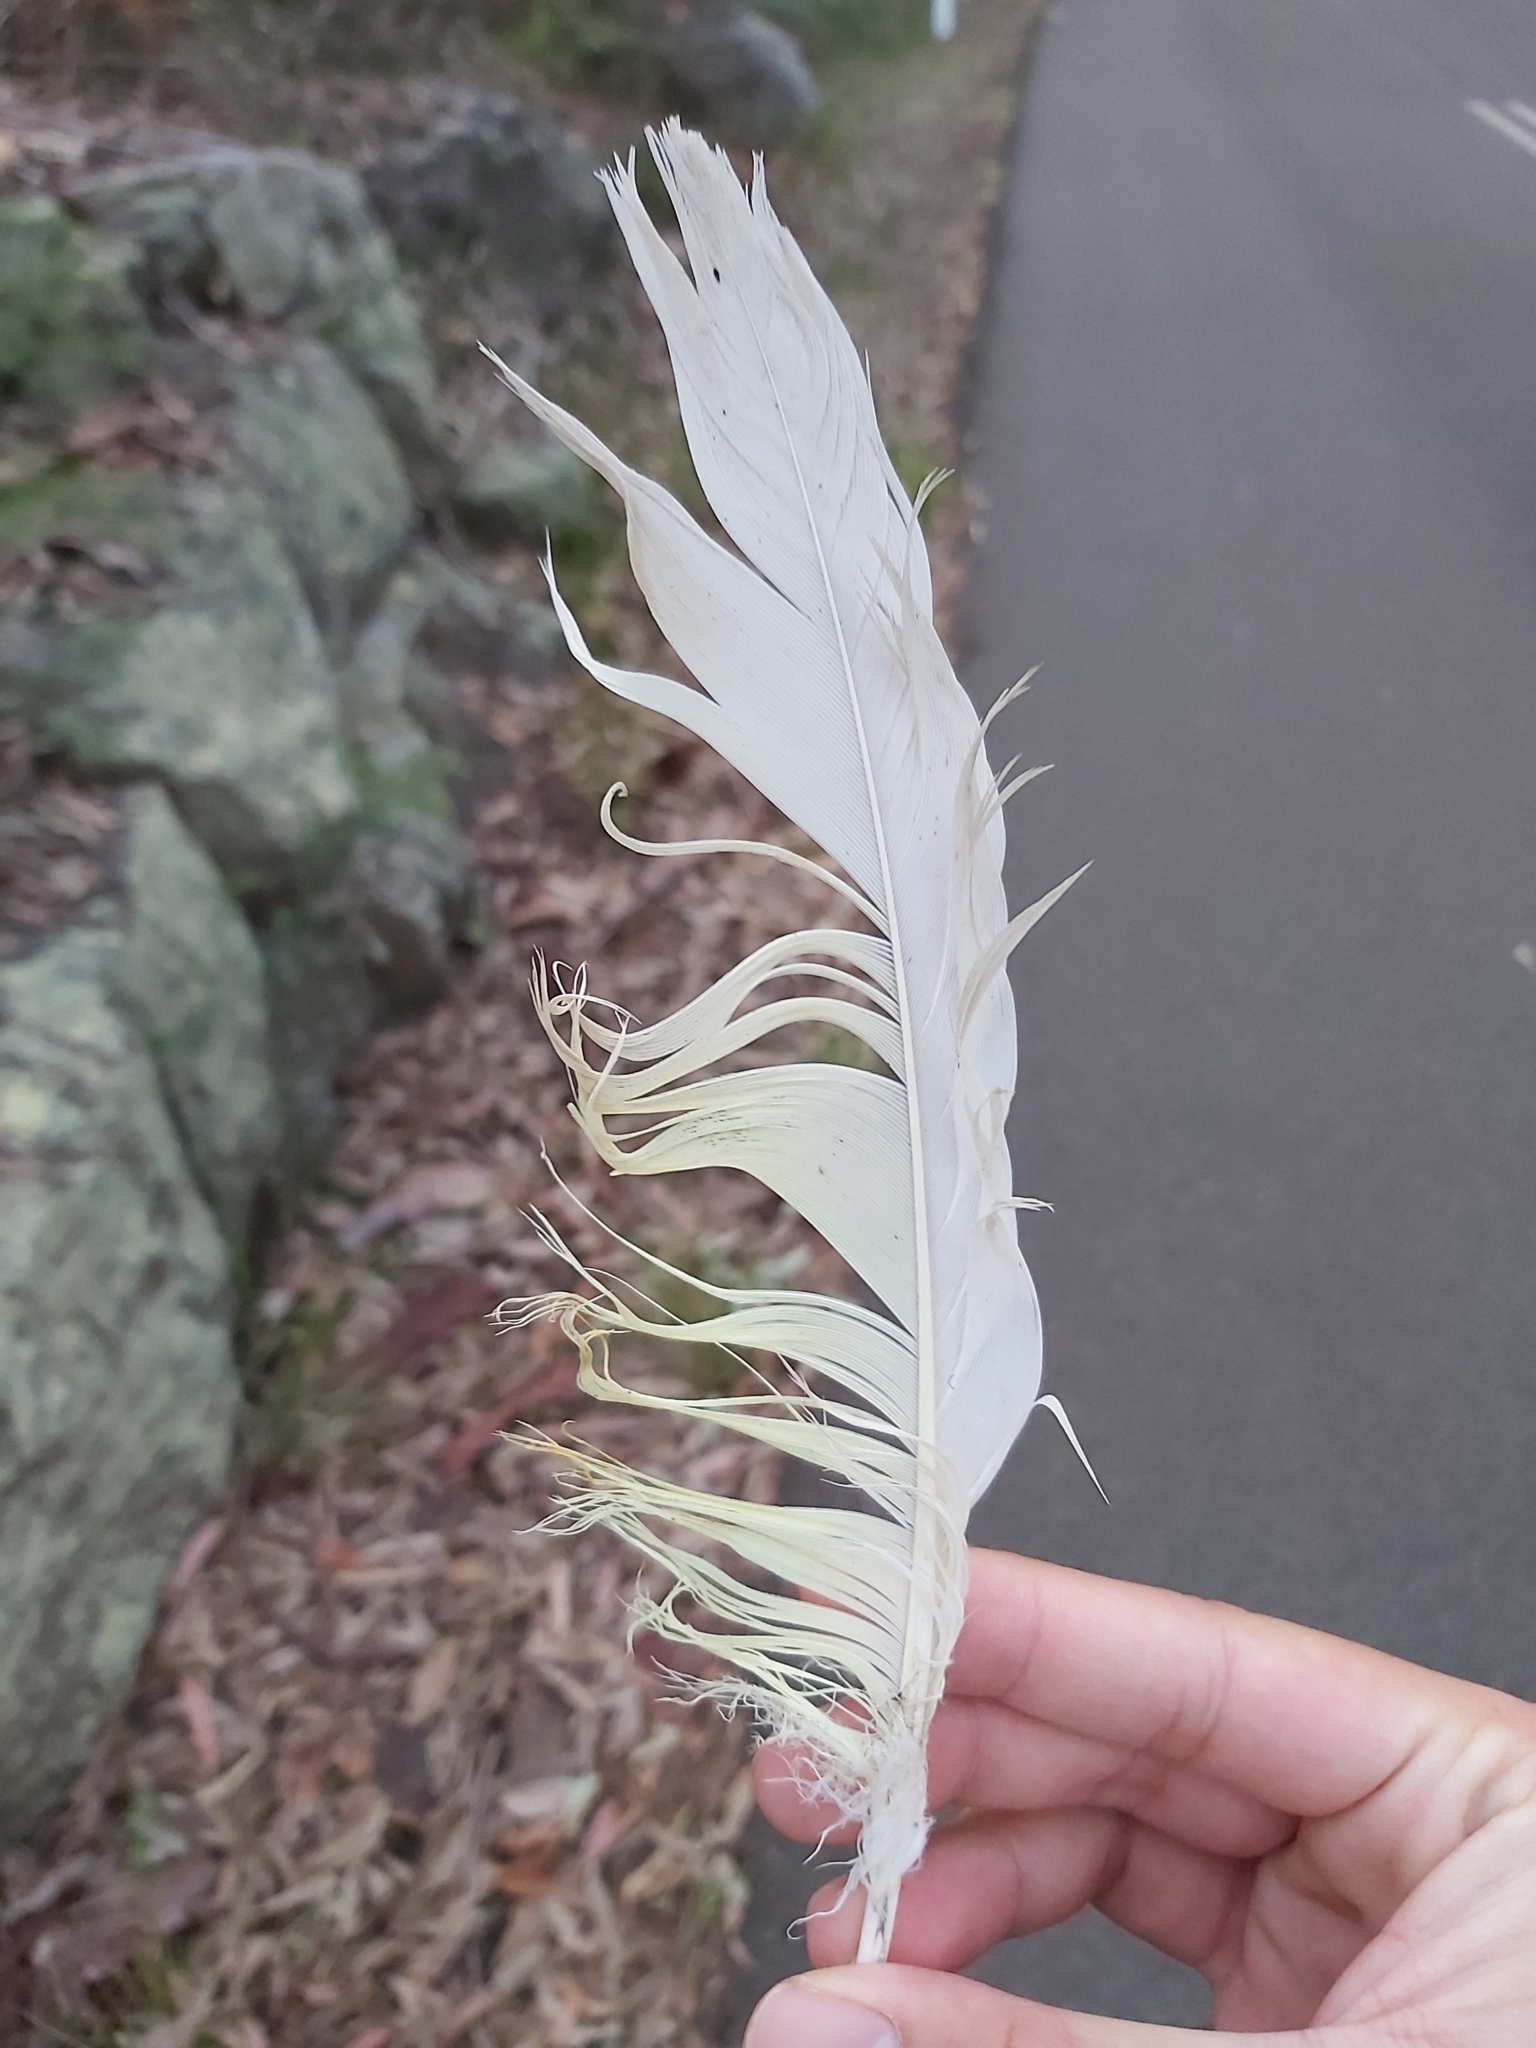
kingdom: Animalia
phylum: Chordata
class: Aves
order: Psittaciformes
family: Psittacidae
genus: Cacatua
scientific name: Cacatua galerita
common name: Sulphur-crested cockatoo
